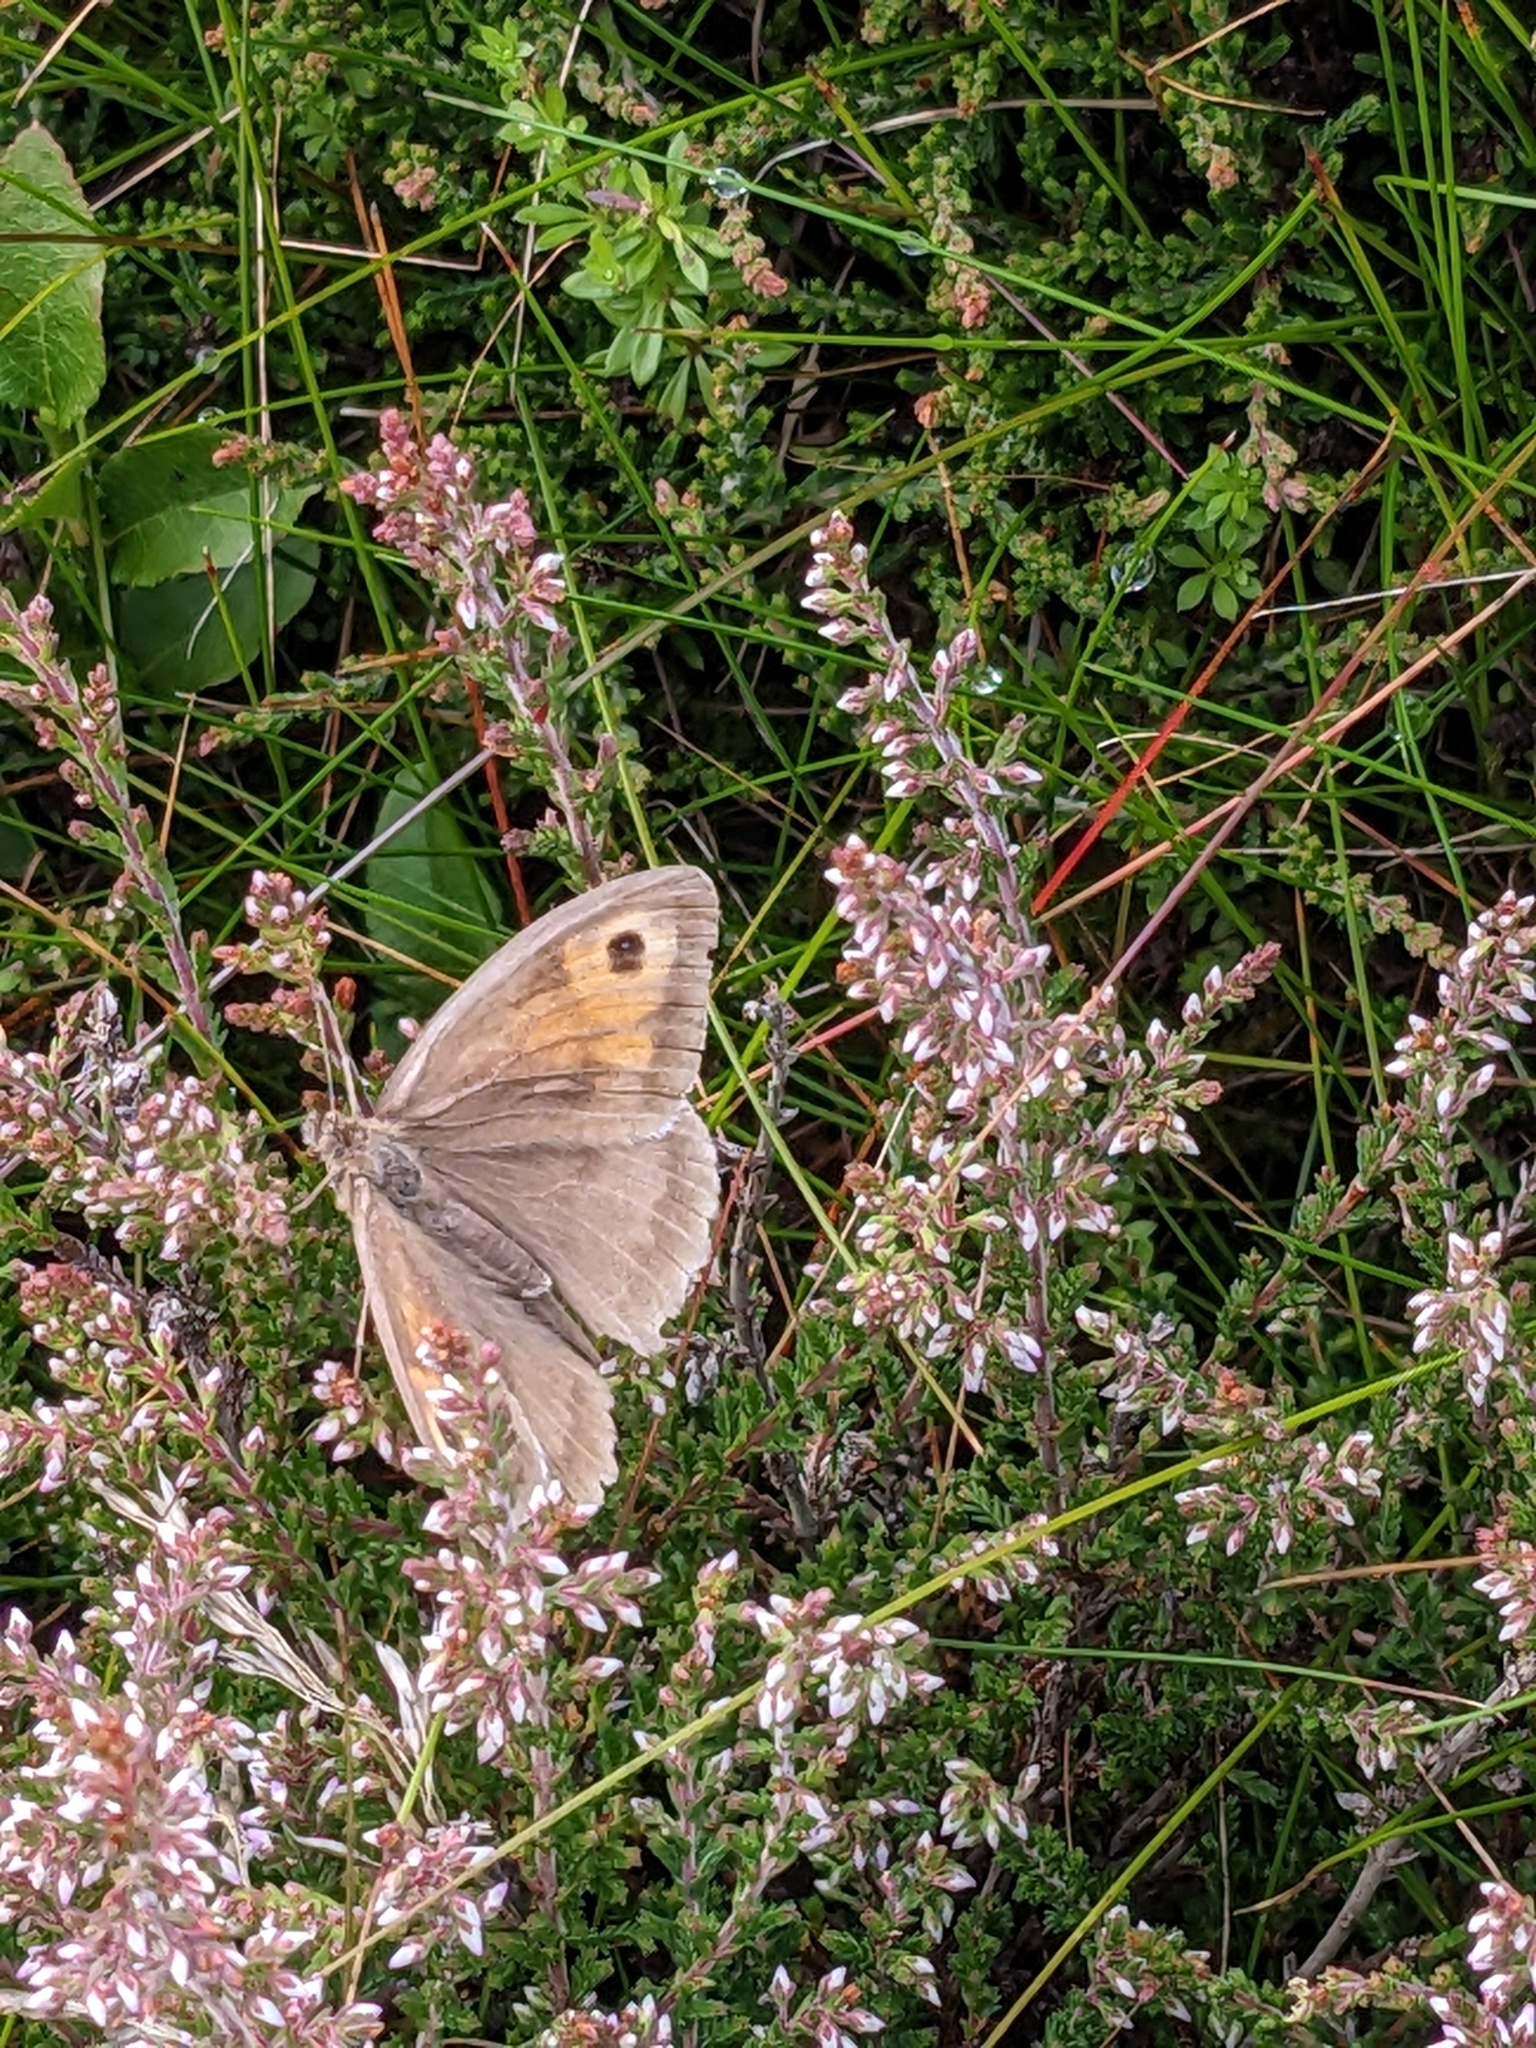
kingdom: Animalia
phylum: Arthropoda
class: Insecta
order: Lepidoptera
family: Nymphalidae
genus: Maniola
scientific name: Maniola jurtina
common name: Meadow brown
